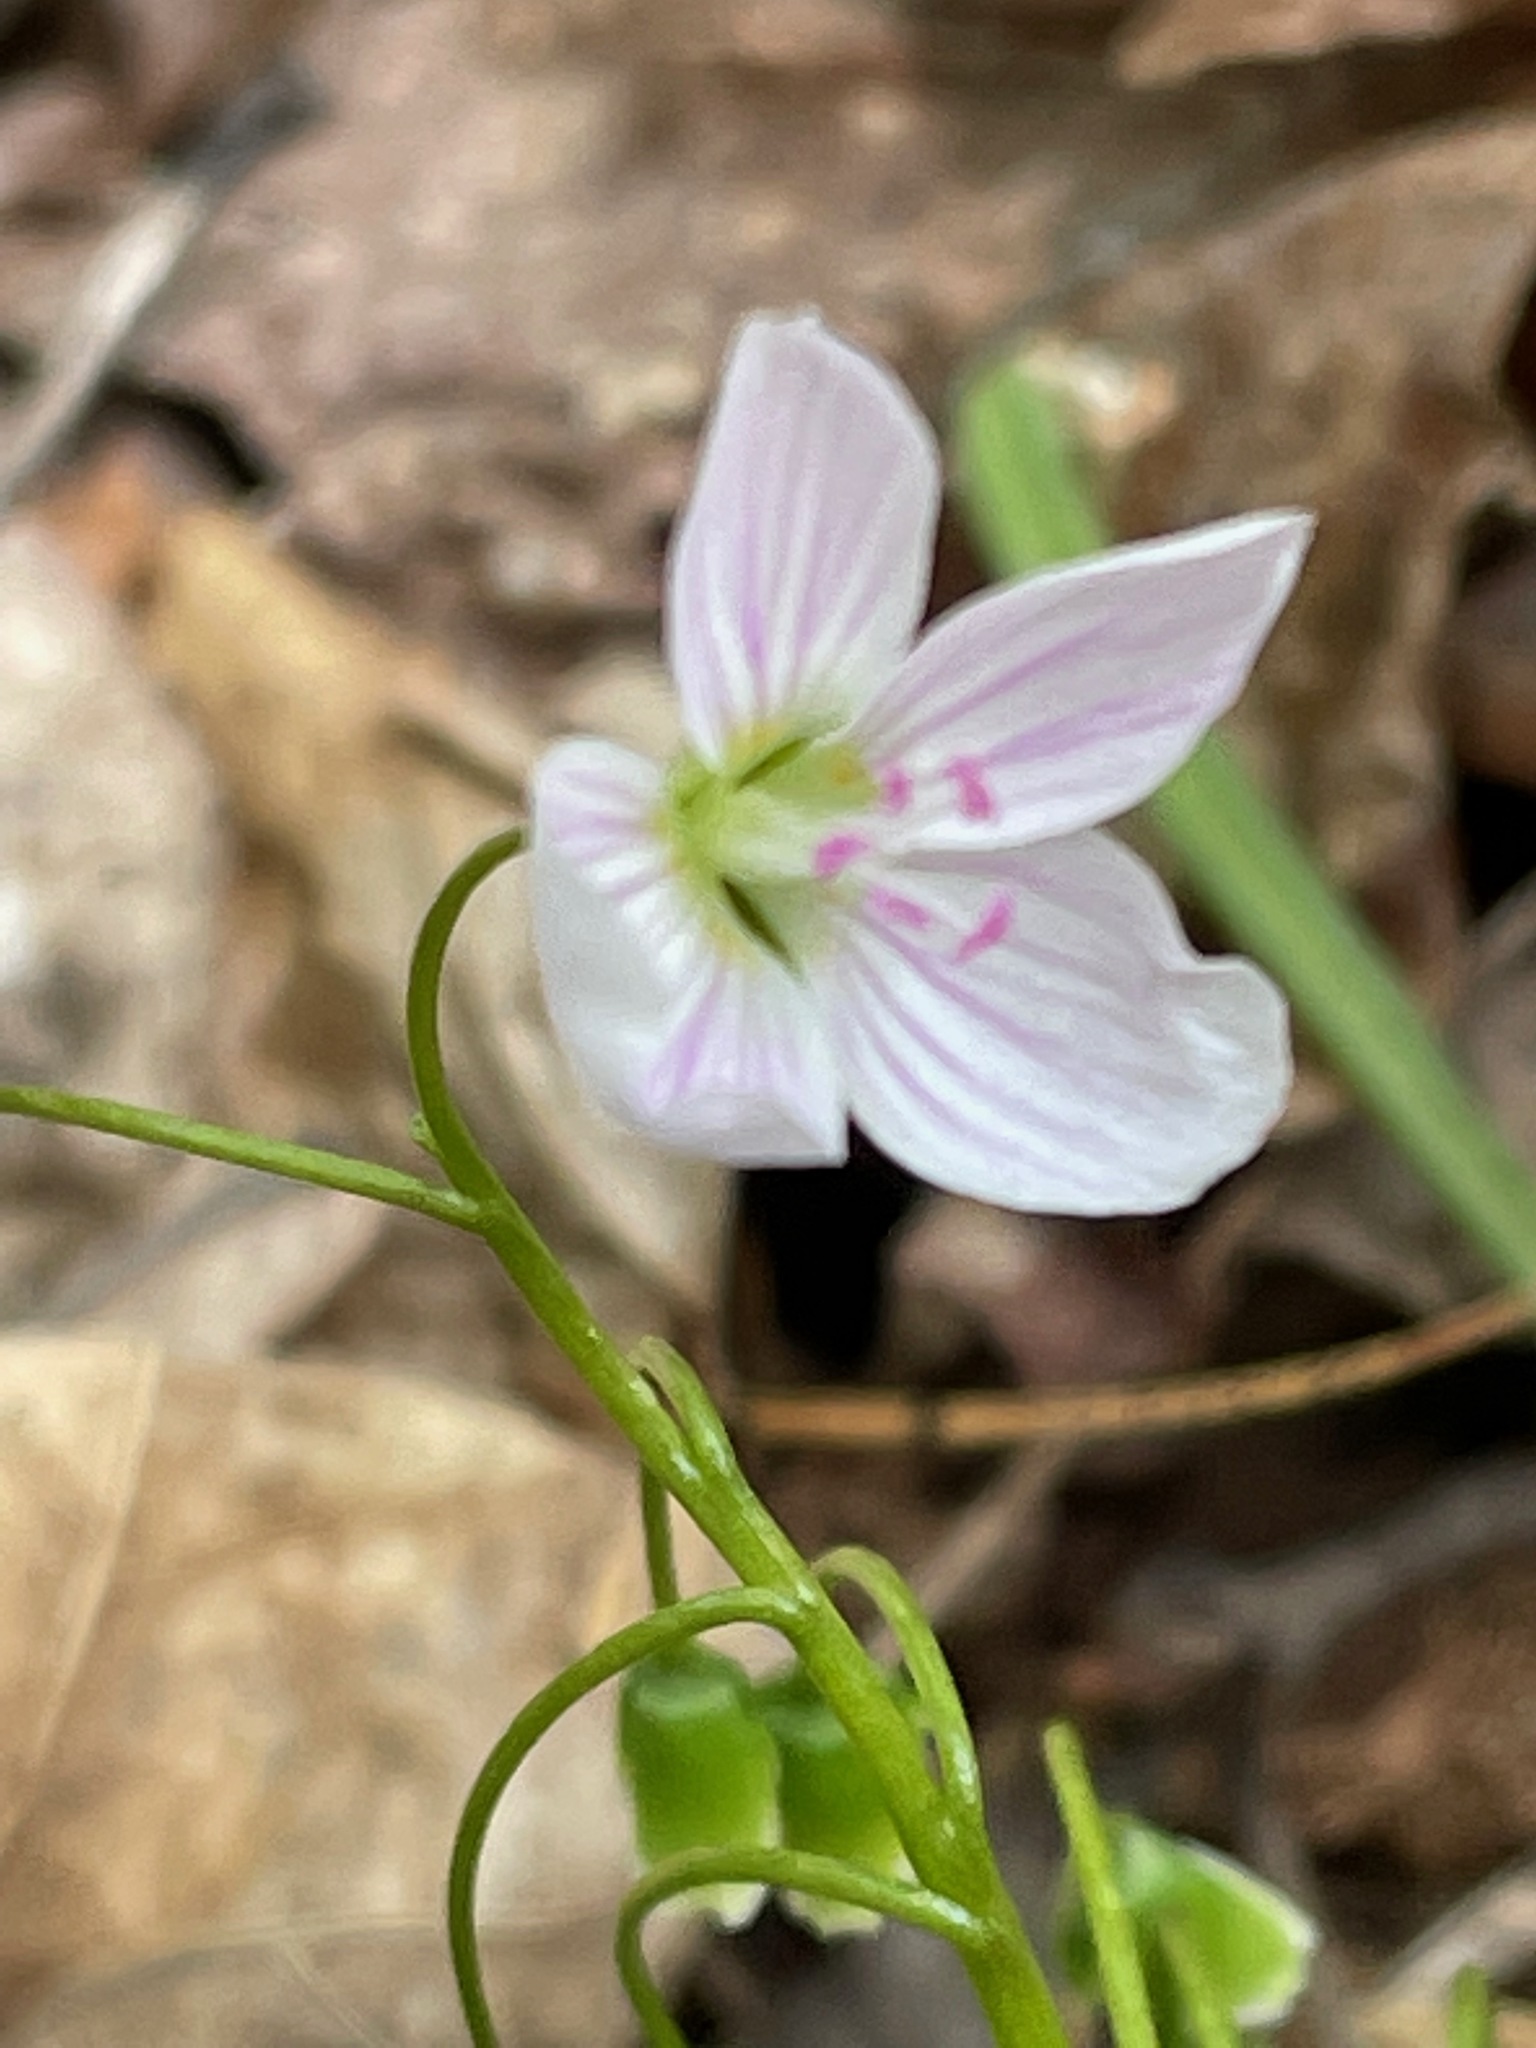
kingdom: Plantae
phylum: Tracheophyta
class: Magnoliopsida
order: Caryophyllales
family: Montiaceae
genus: Claytonia
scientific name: Claytonia virginica
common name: Virginia springbeauty
